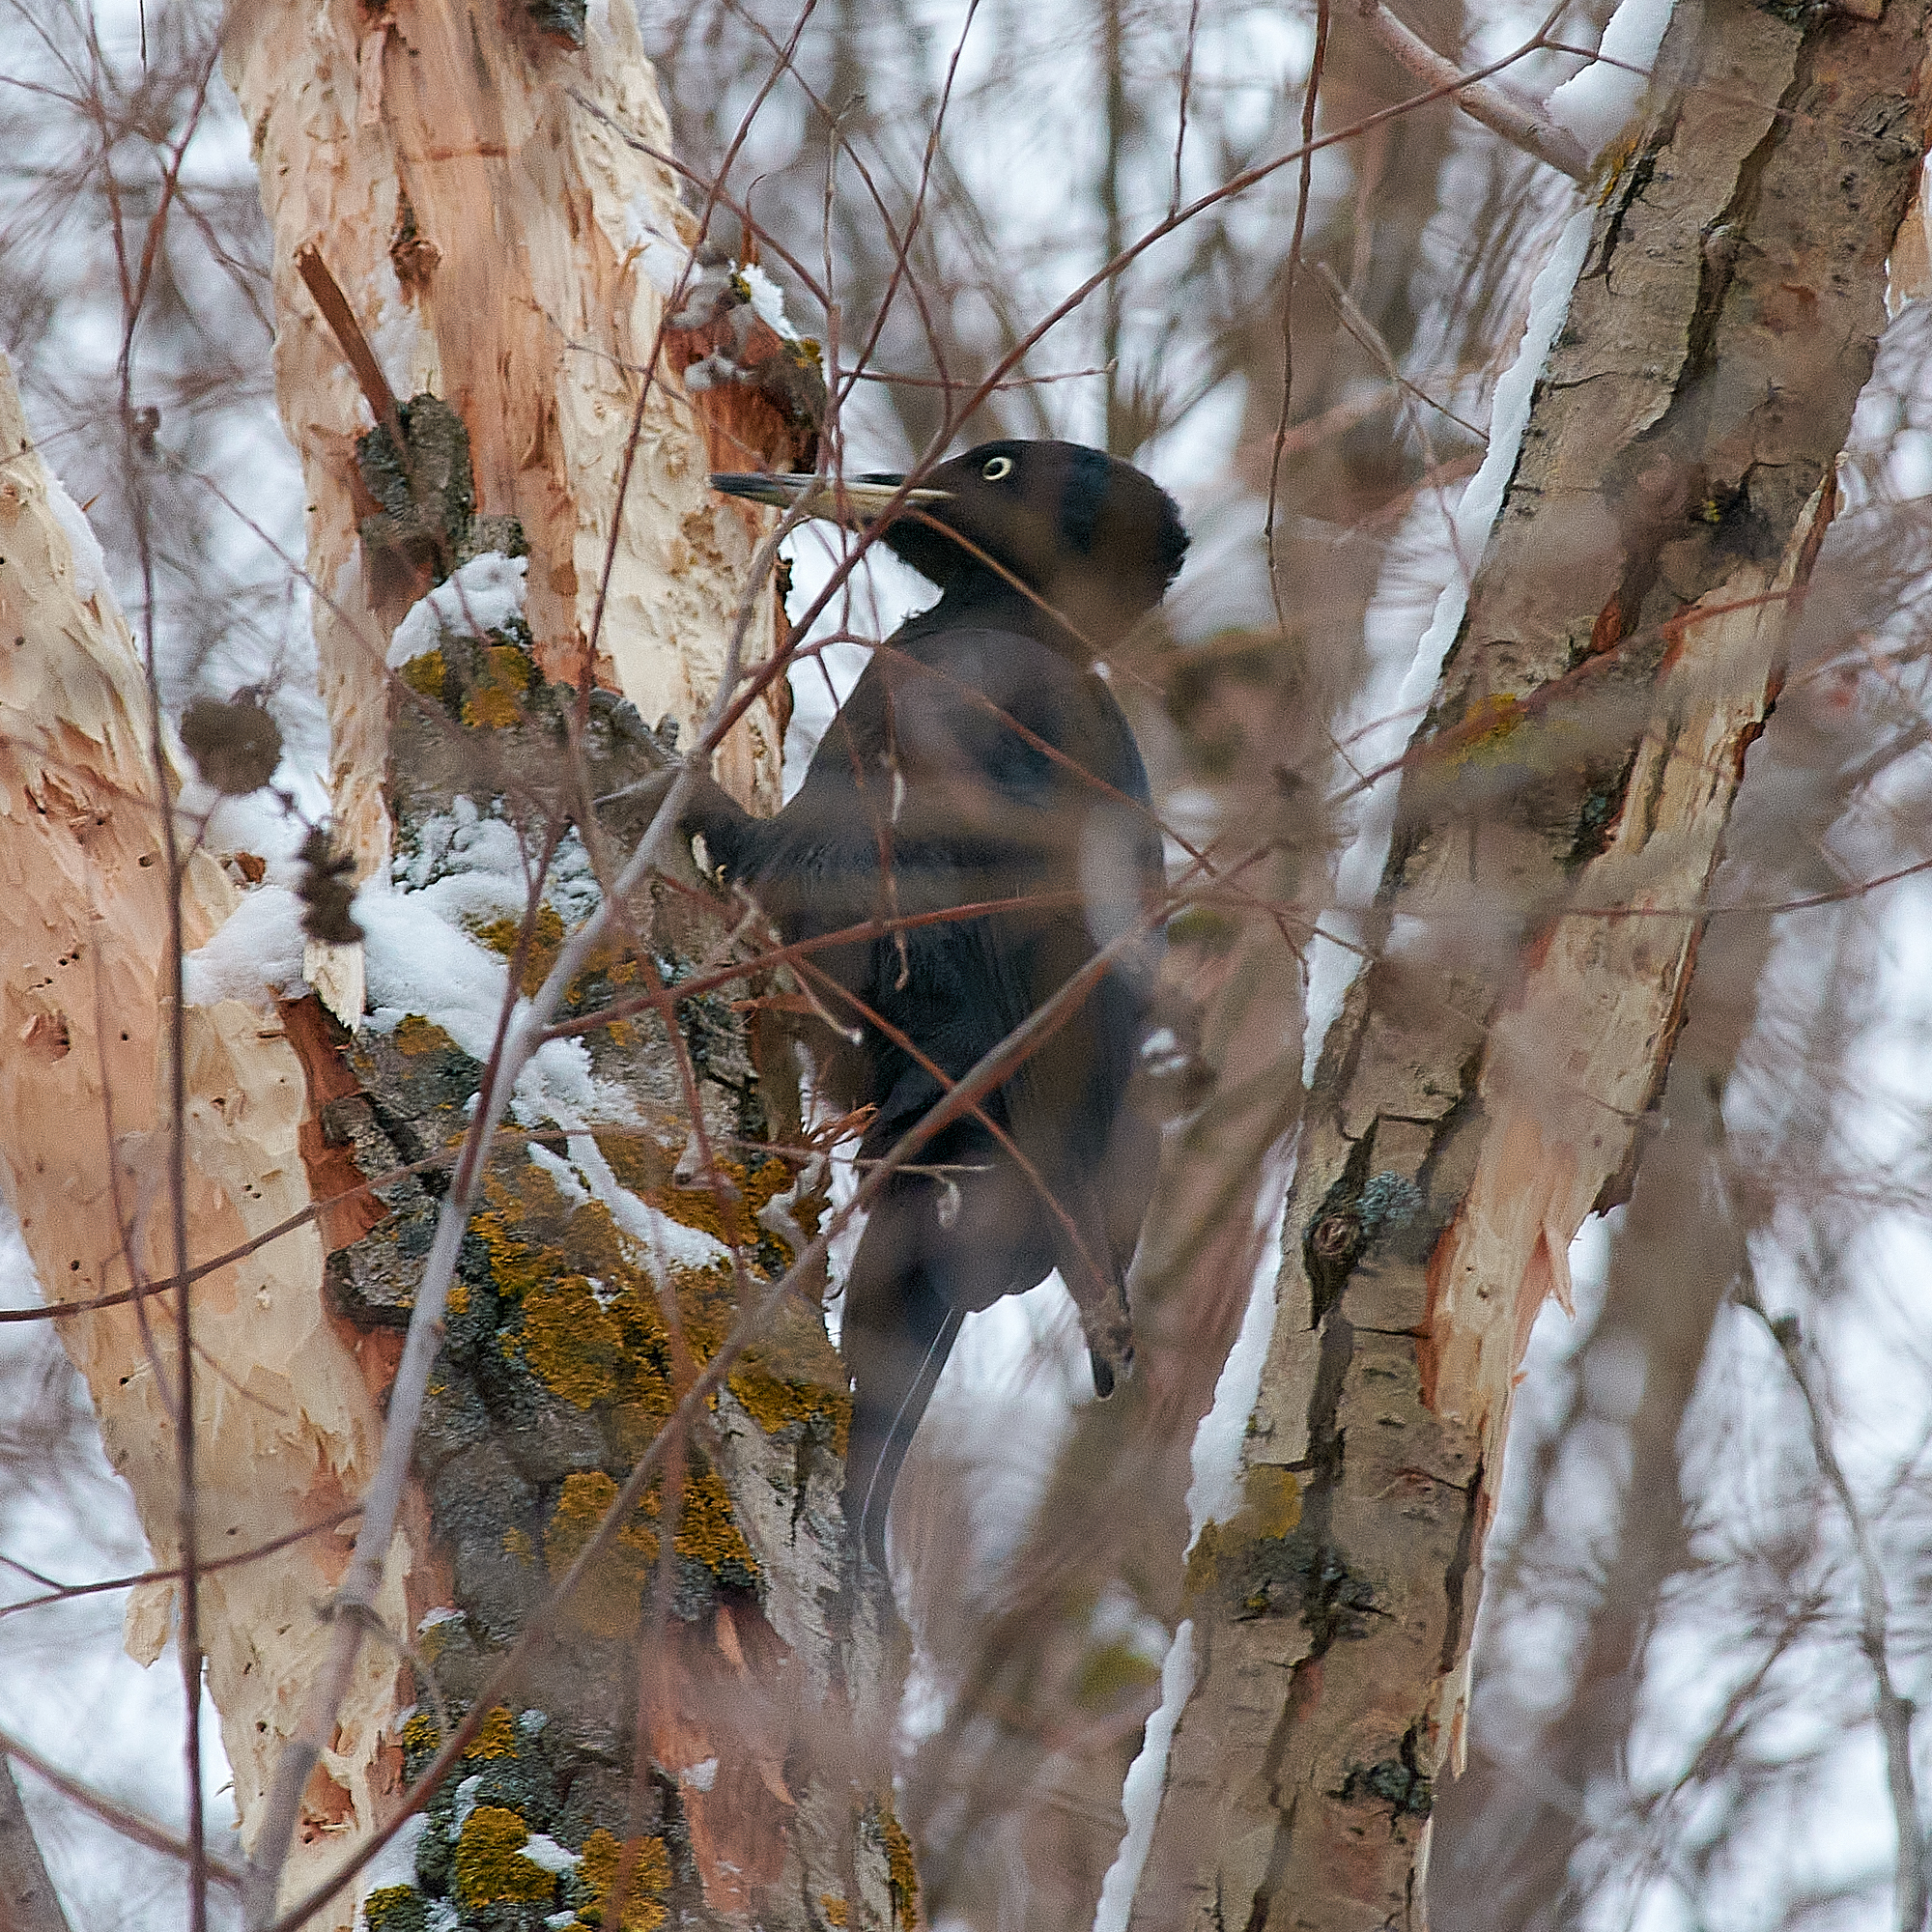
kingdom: Animalia
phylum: Chordata
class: Aves
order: Piciformes
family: Picidae
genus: Dryocopus
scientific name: Dryocopus martius
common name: Black woodpecker
